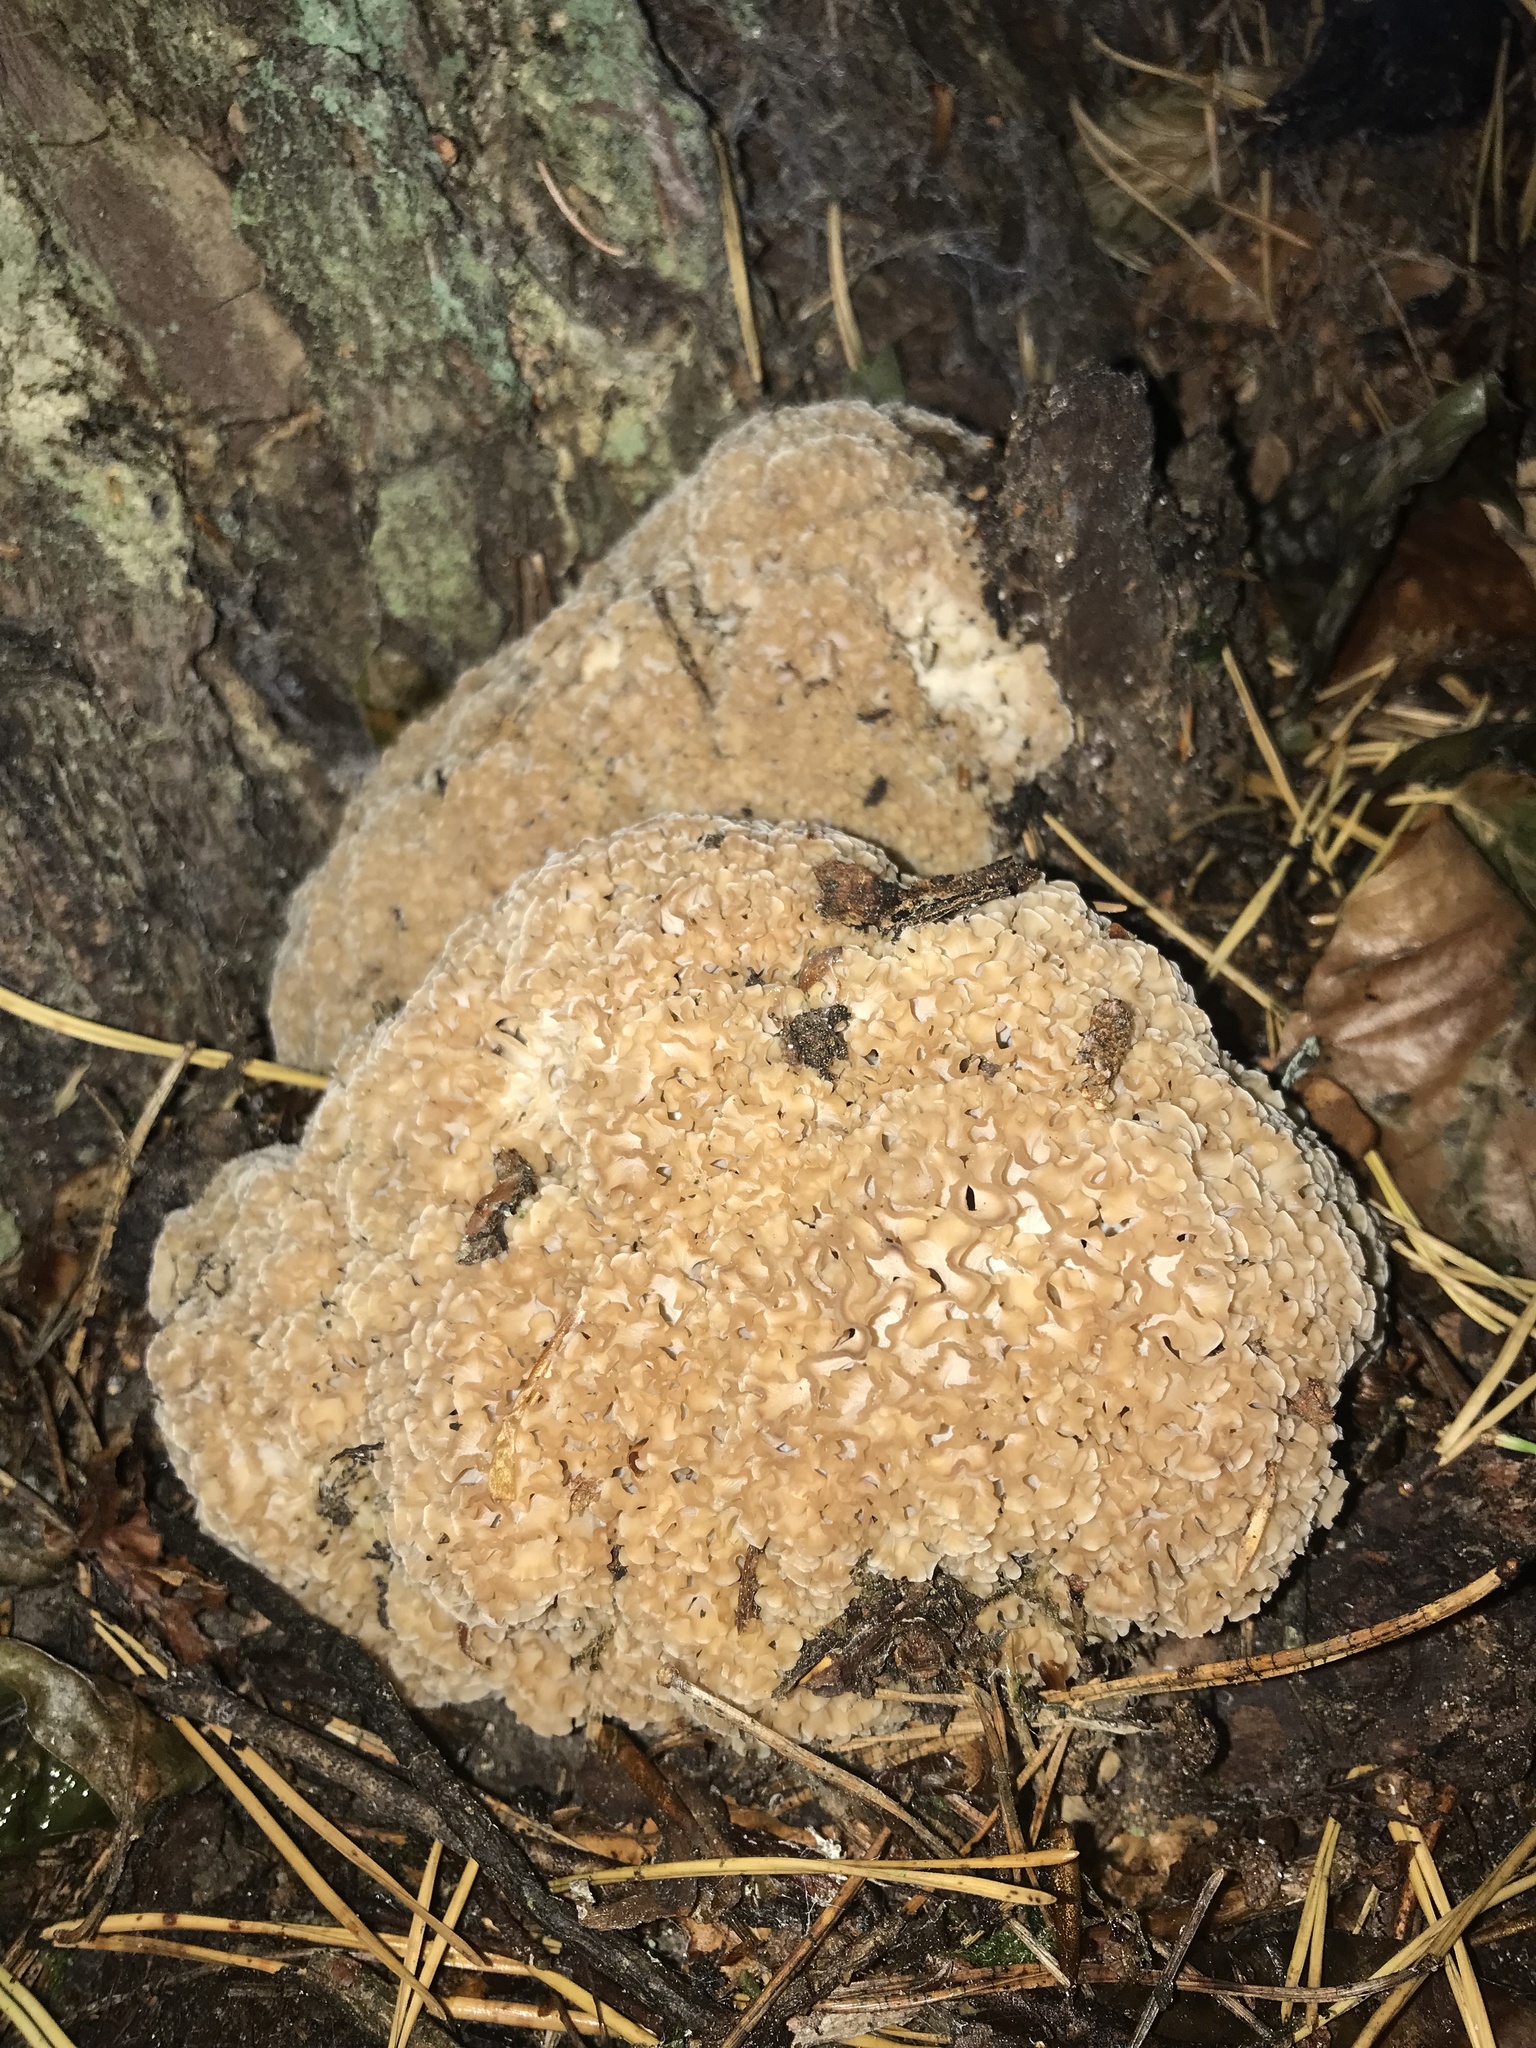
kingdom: Fungi
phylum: Basidiomycota
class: Agaricomycetes
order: Polyporales
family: Sparassidaceae
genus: Sparassis
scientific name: Sparassis crispa
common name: Brain fungus
